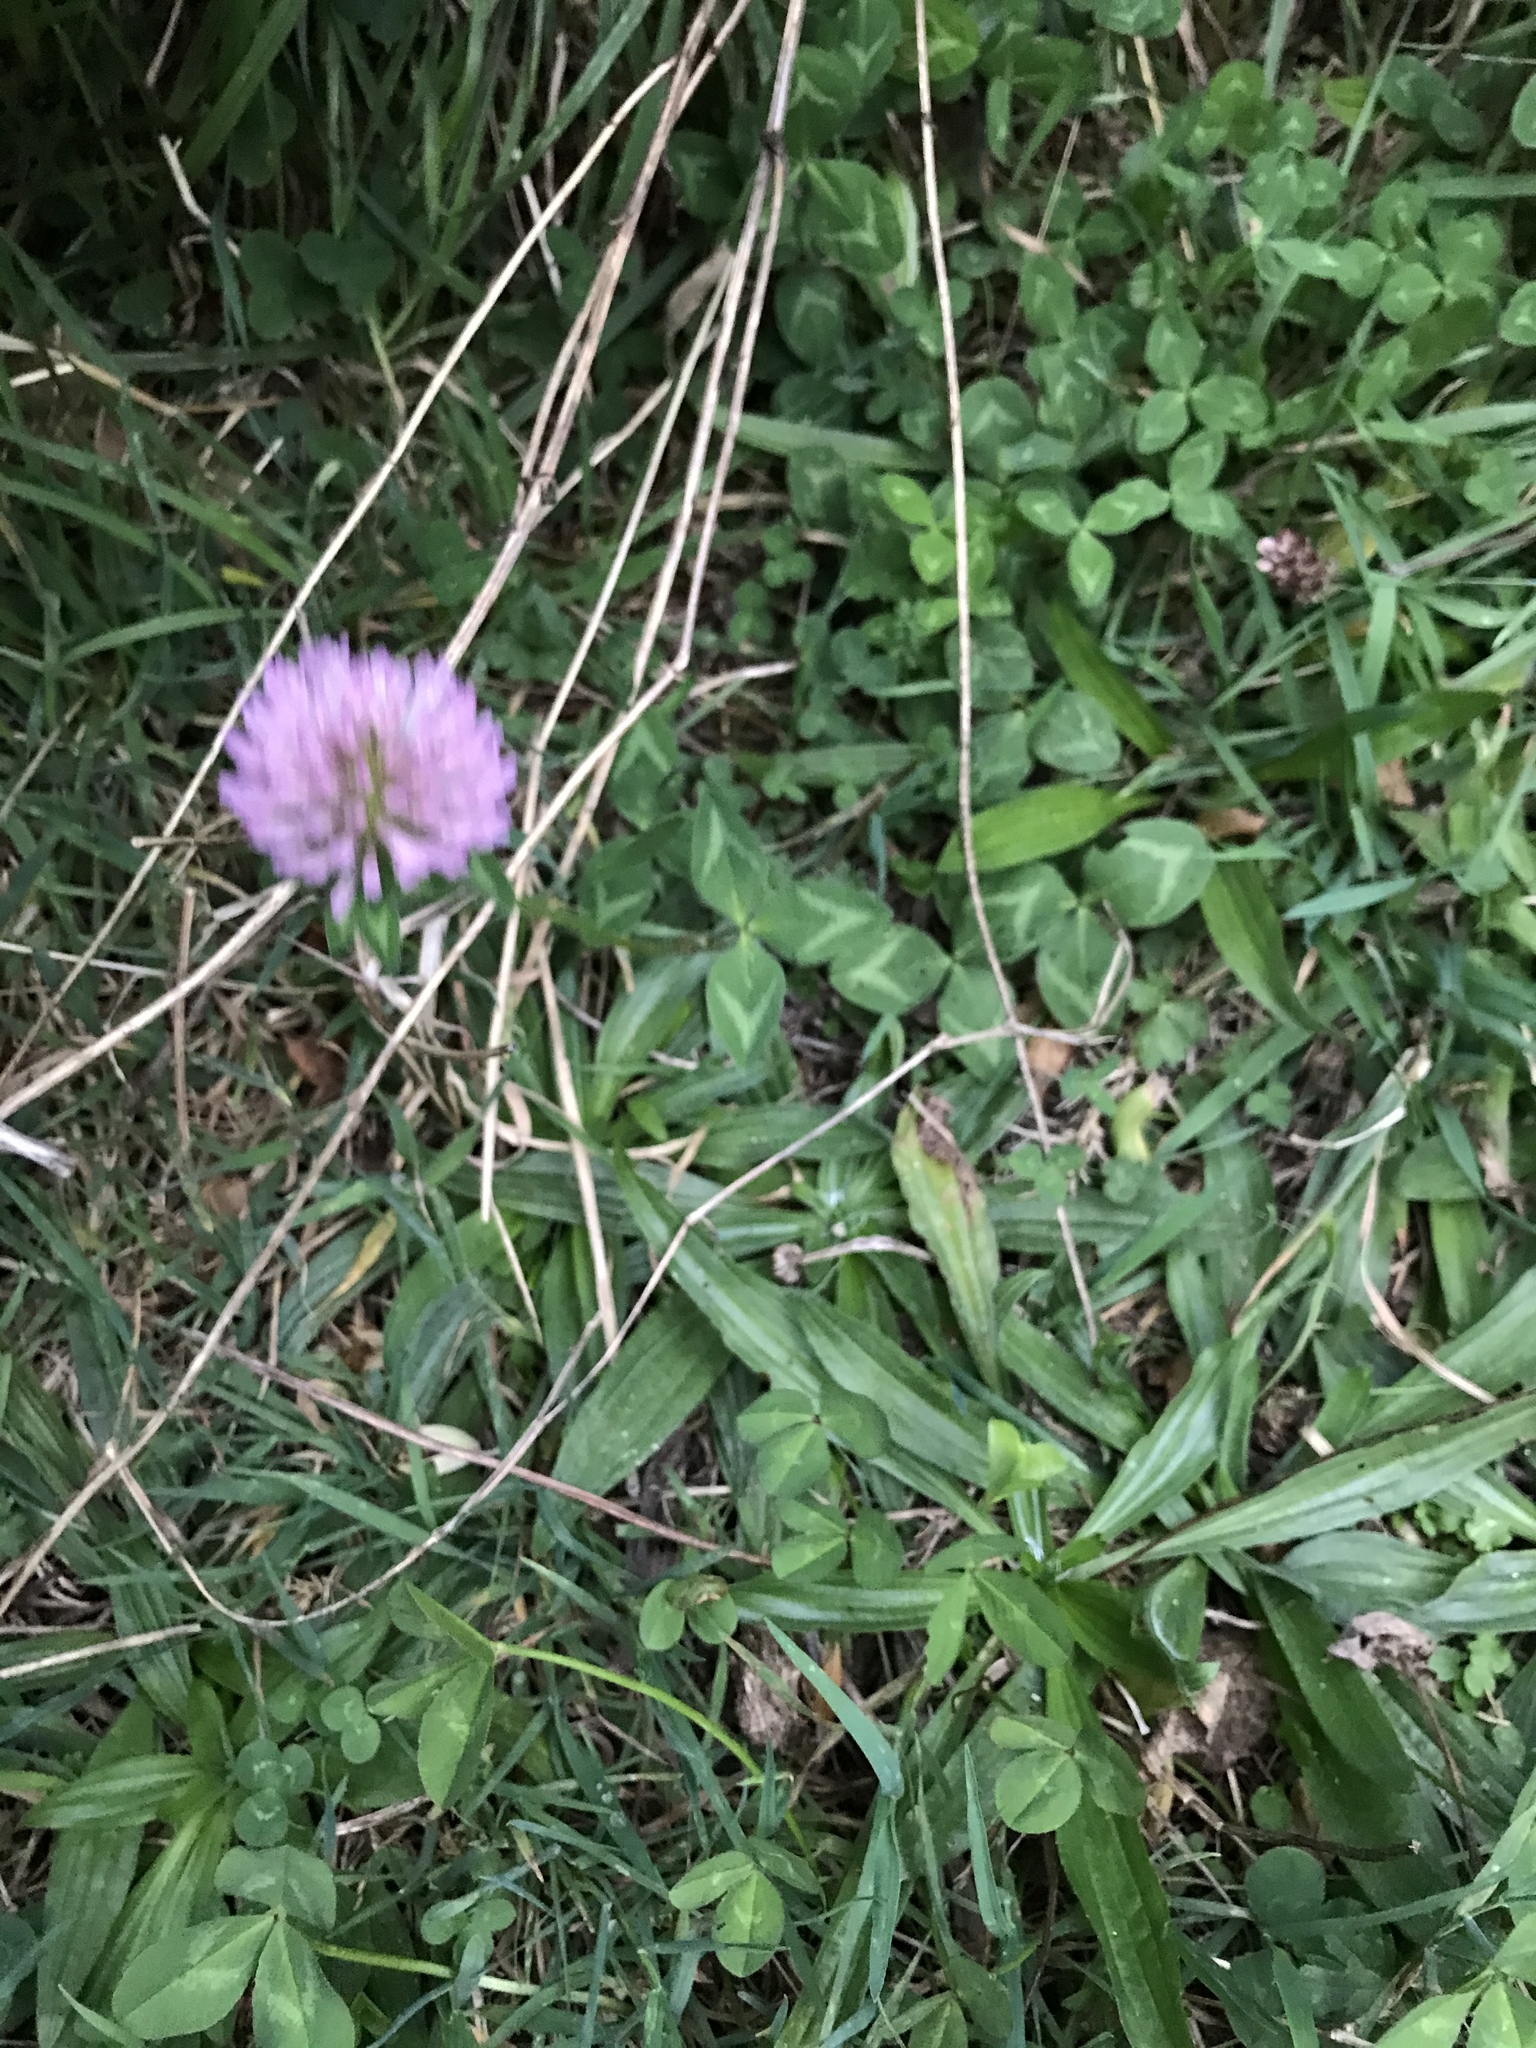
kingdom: Plantae
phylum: Tracheophyta
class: Magnoliopsida
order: Fabales
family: Fabaceae
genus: Trifolium
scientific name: Trifolium pratense
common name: Red clover
